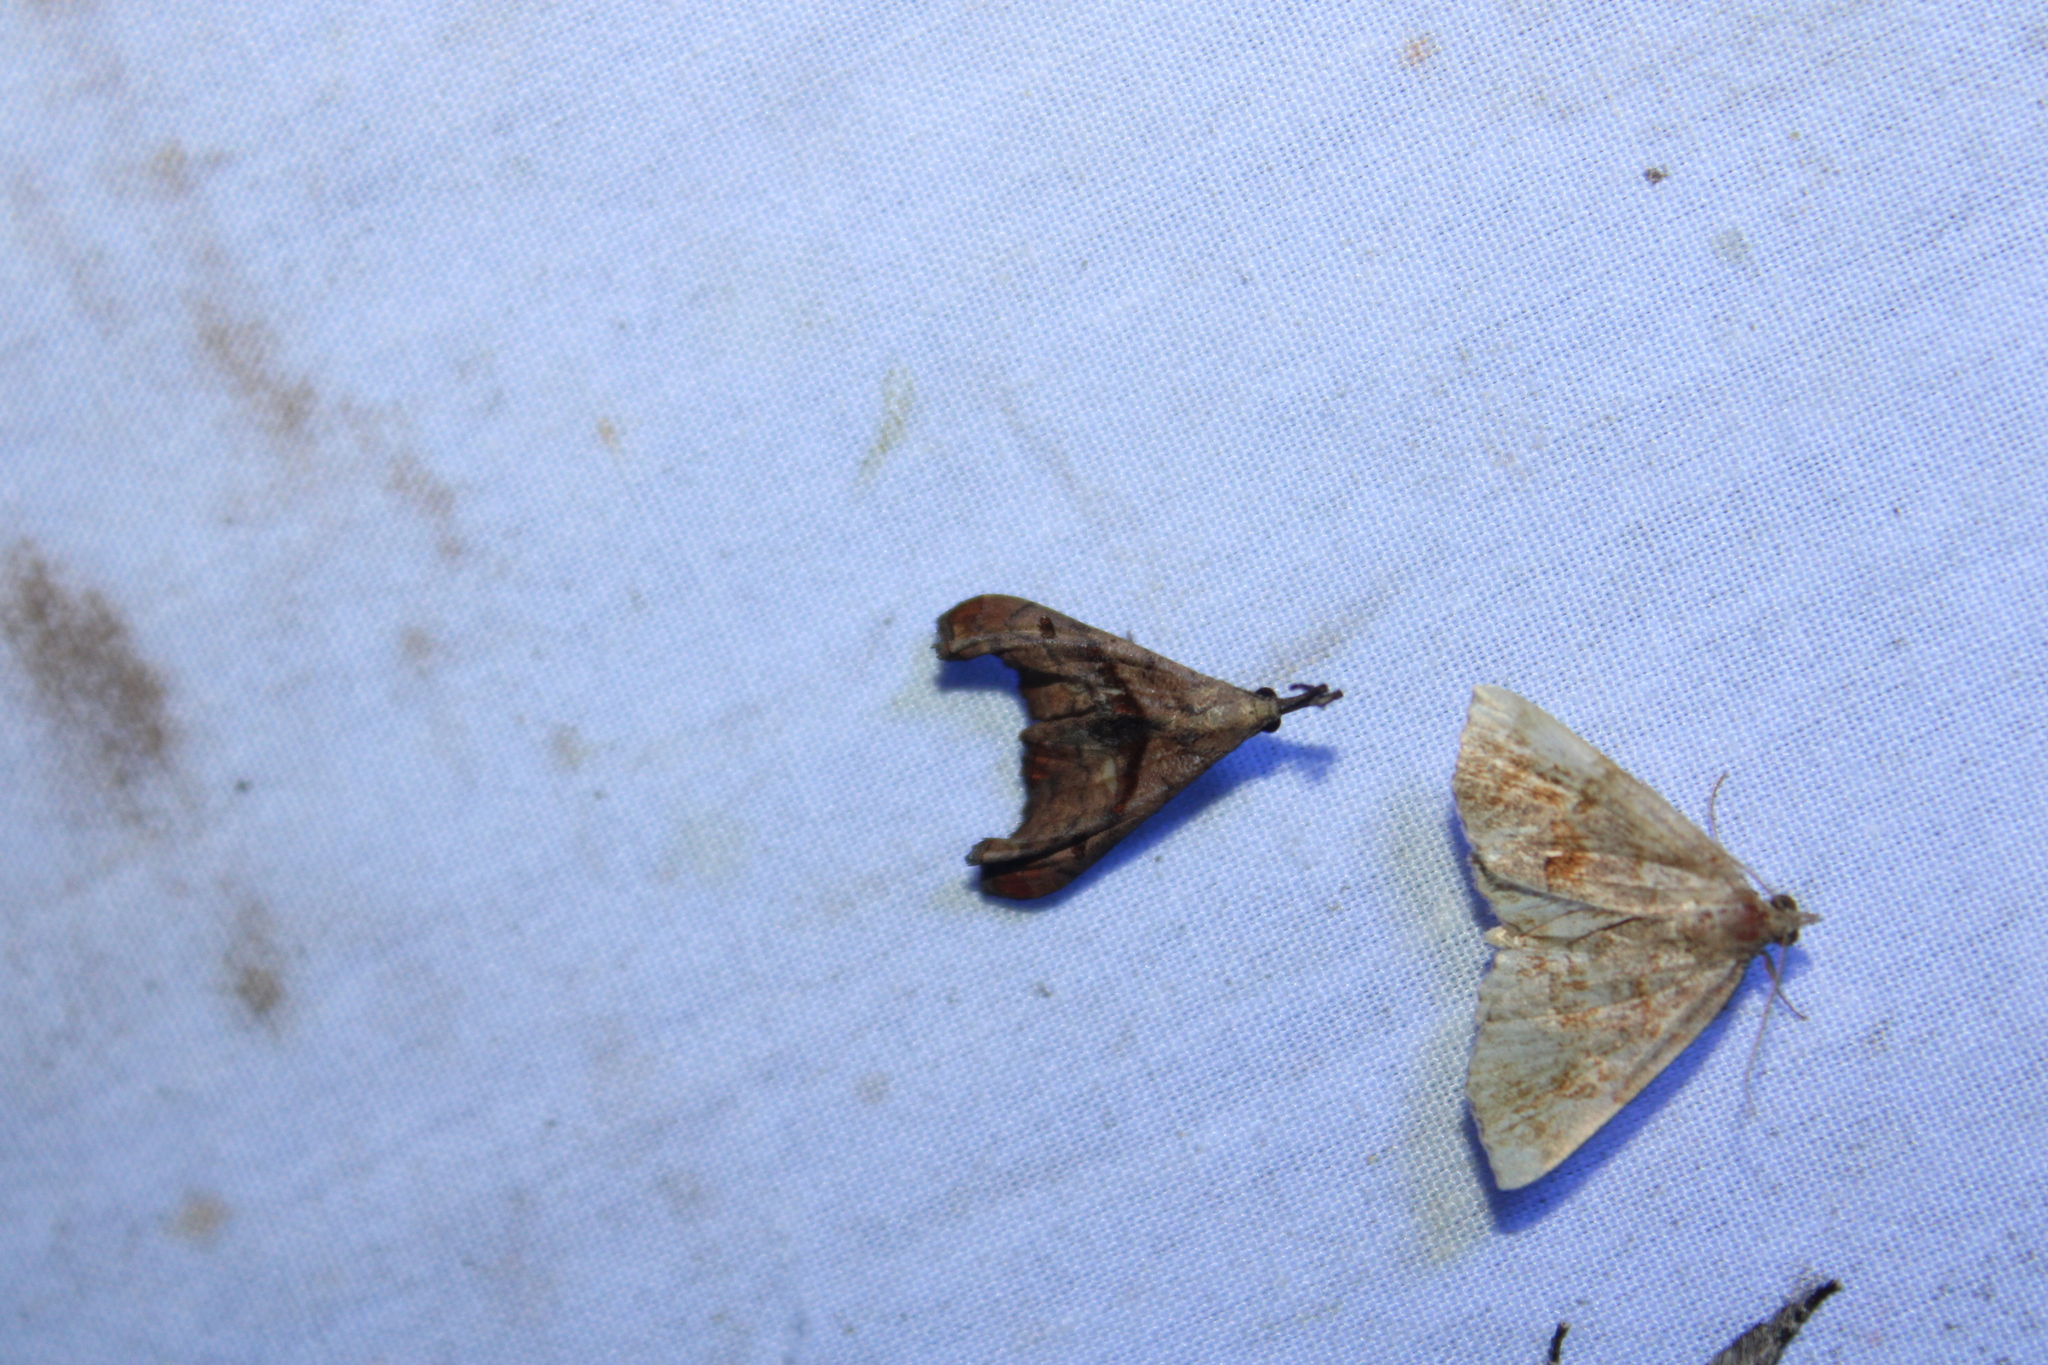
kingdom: Animalia
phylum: Arthropoda
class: Insecta
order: Lepidoptera
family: Erebidae
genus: Palthis
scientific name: Palthis angulalis
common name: Dark-spotted palthis moth
